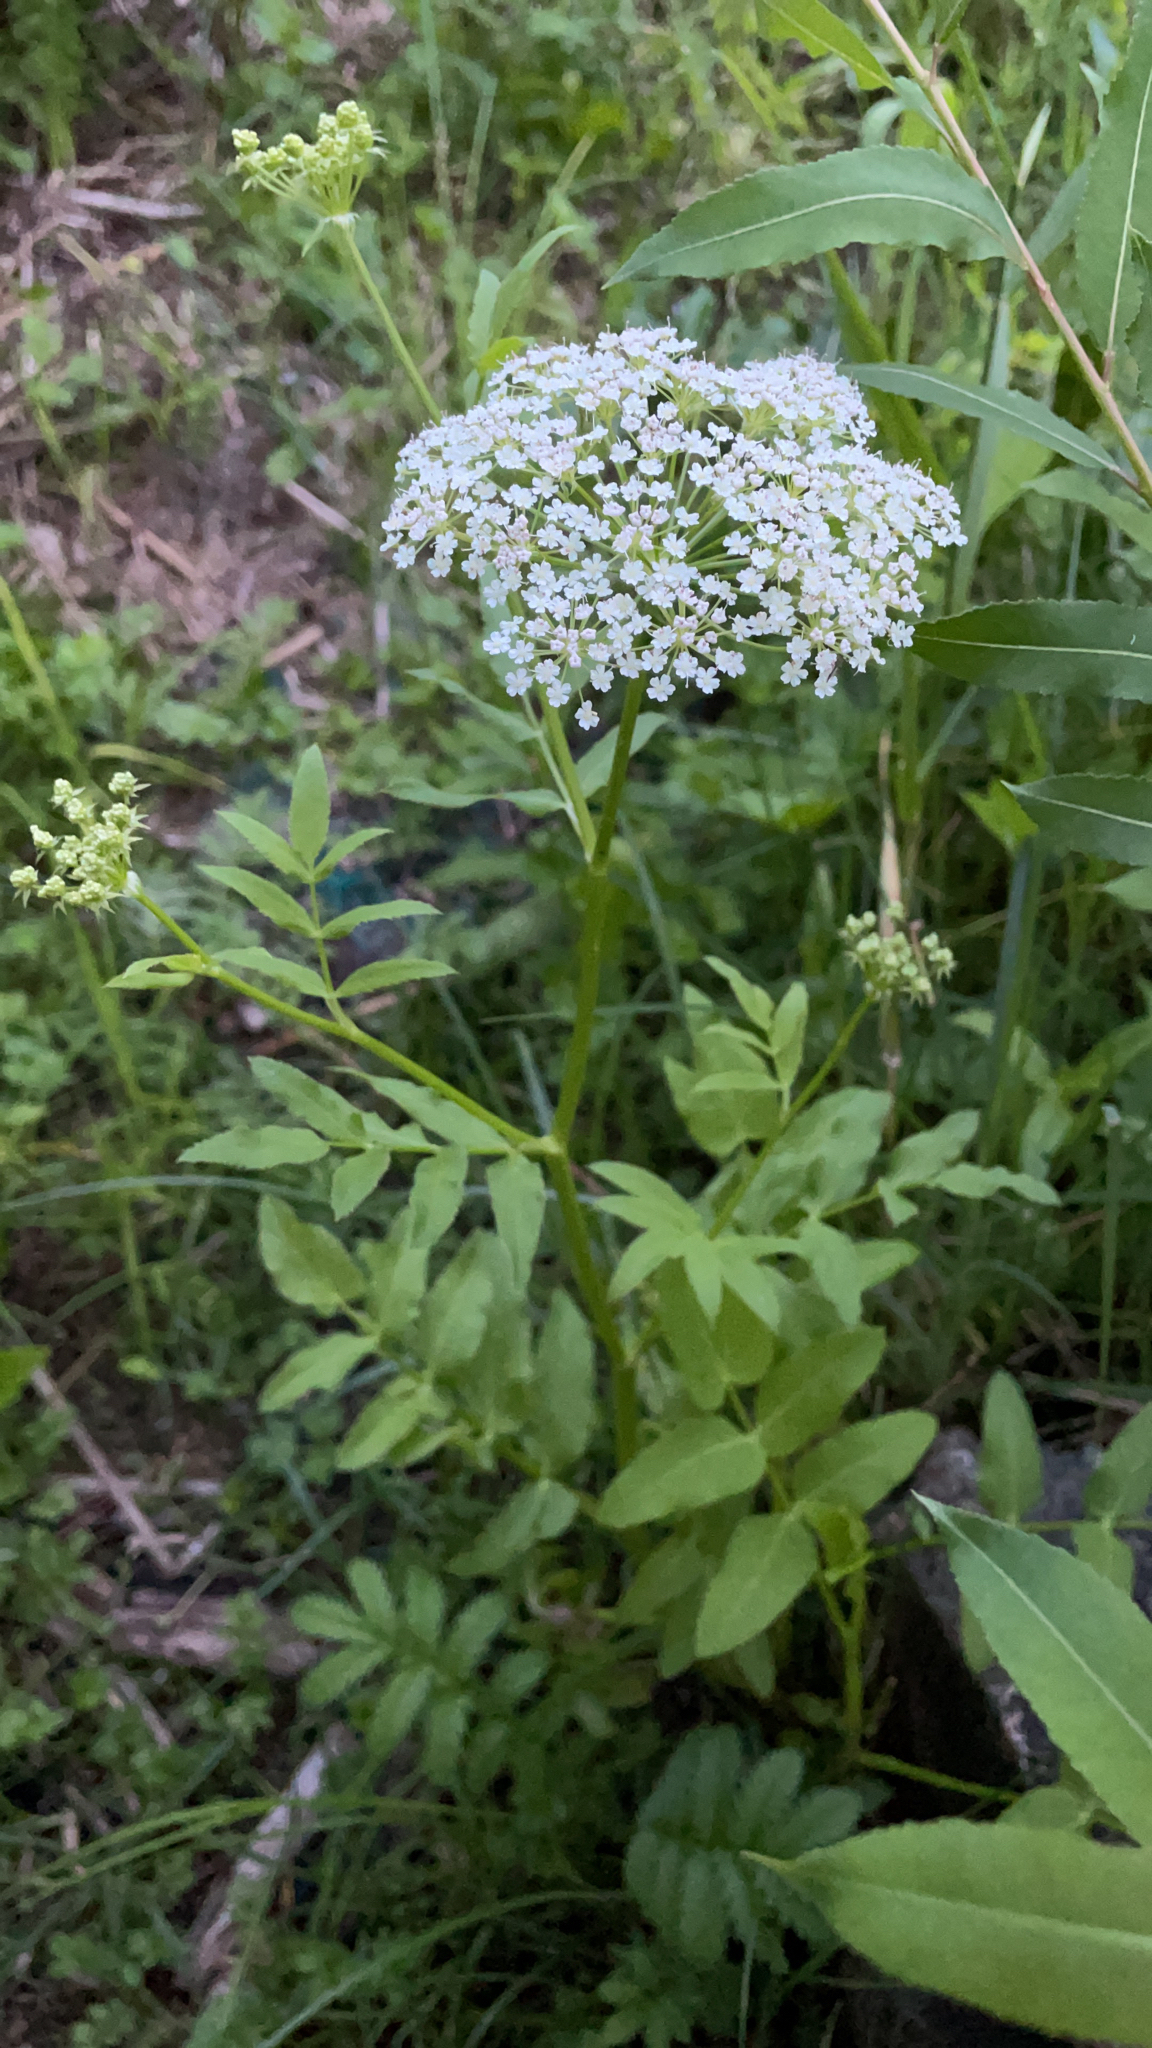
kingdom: Plantae
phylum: Tracheophyta
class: Magnoliopsida
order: Apiales
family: Apiaceae
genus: Sium
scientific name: Sium latifolium
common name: Greater water-parsnip
